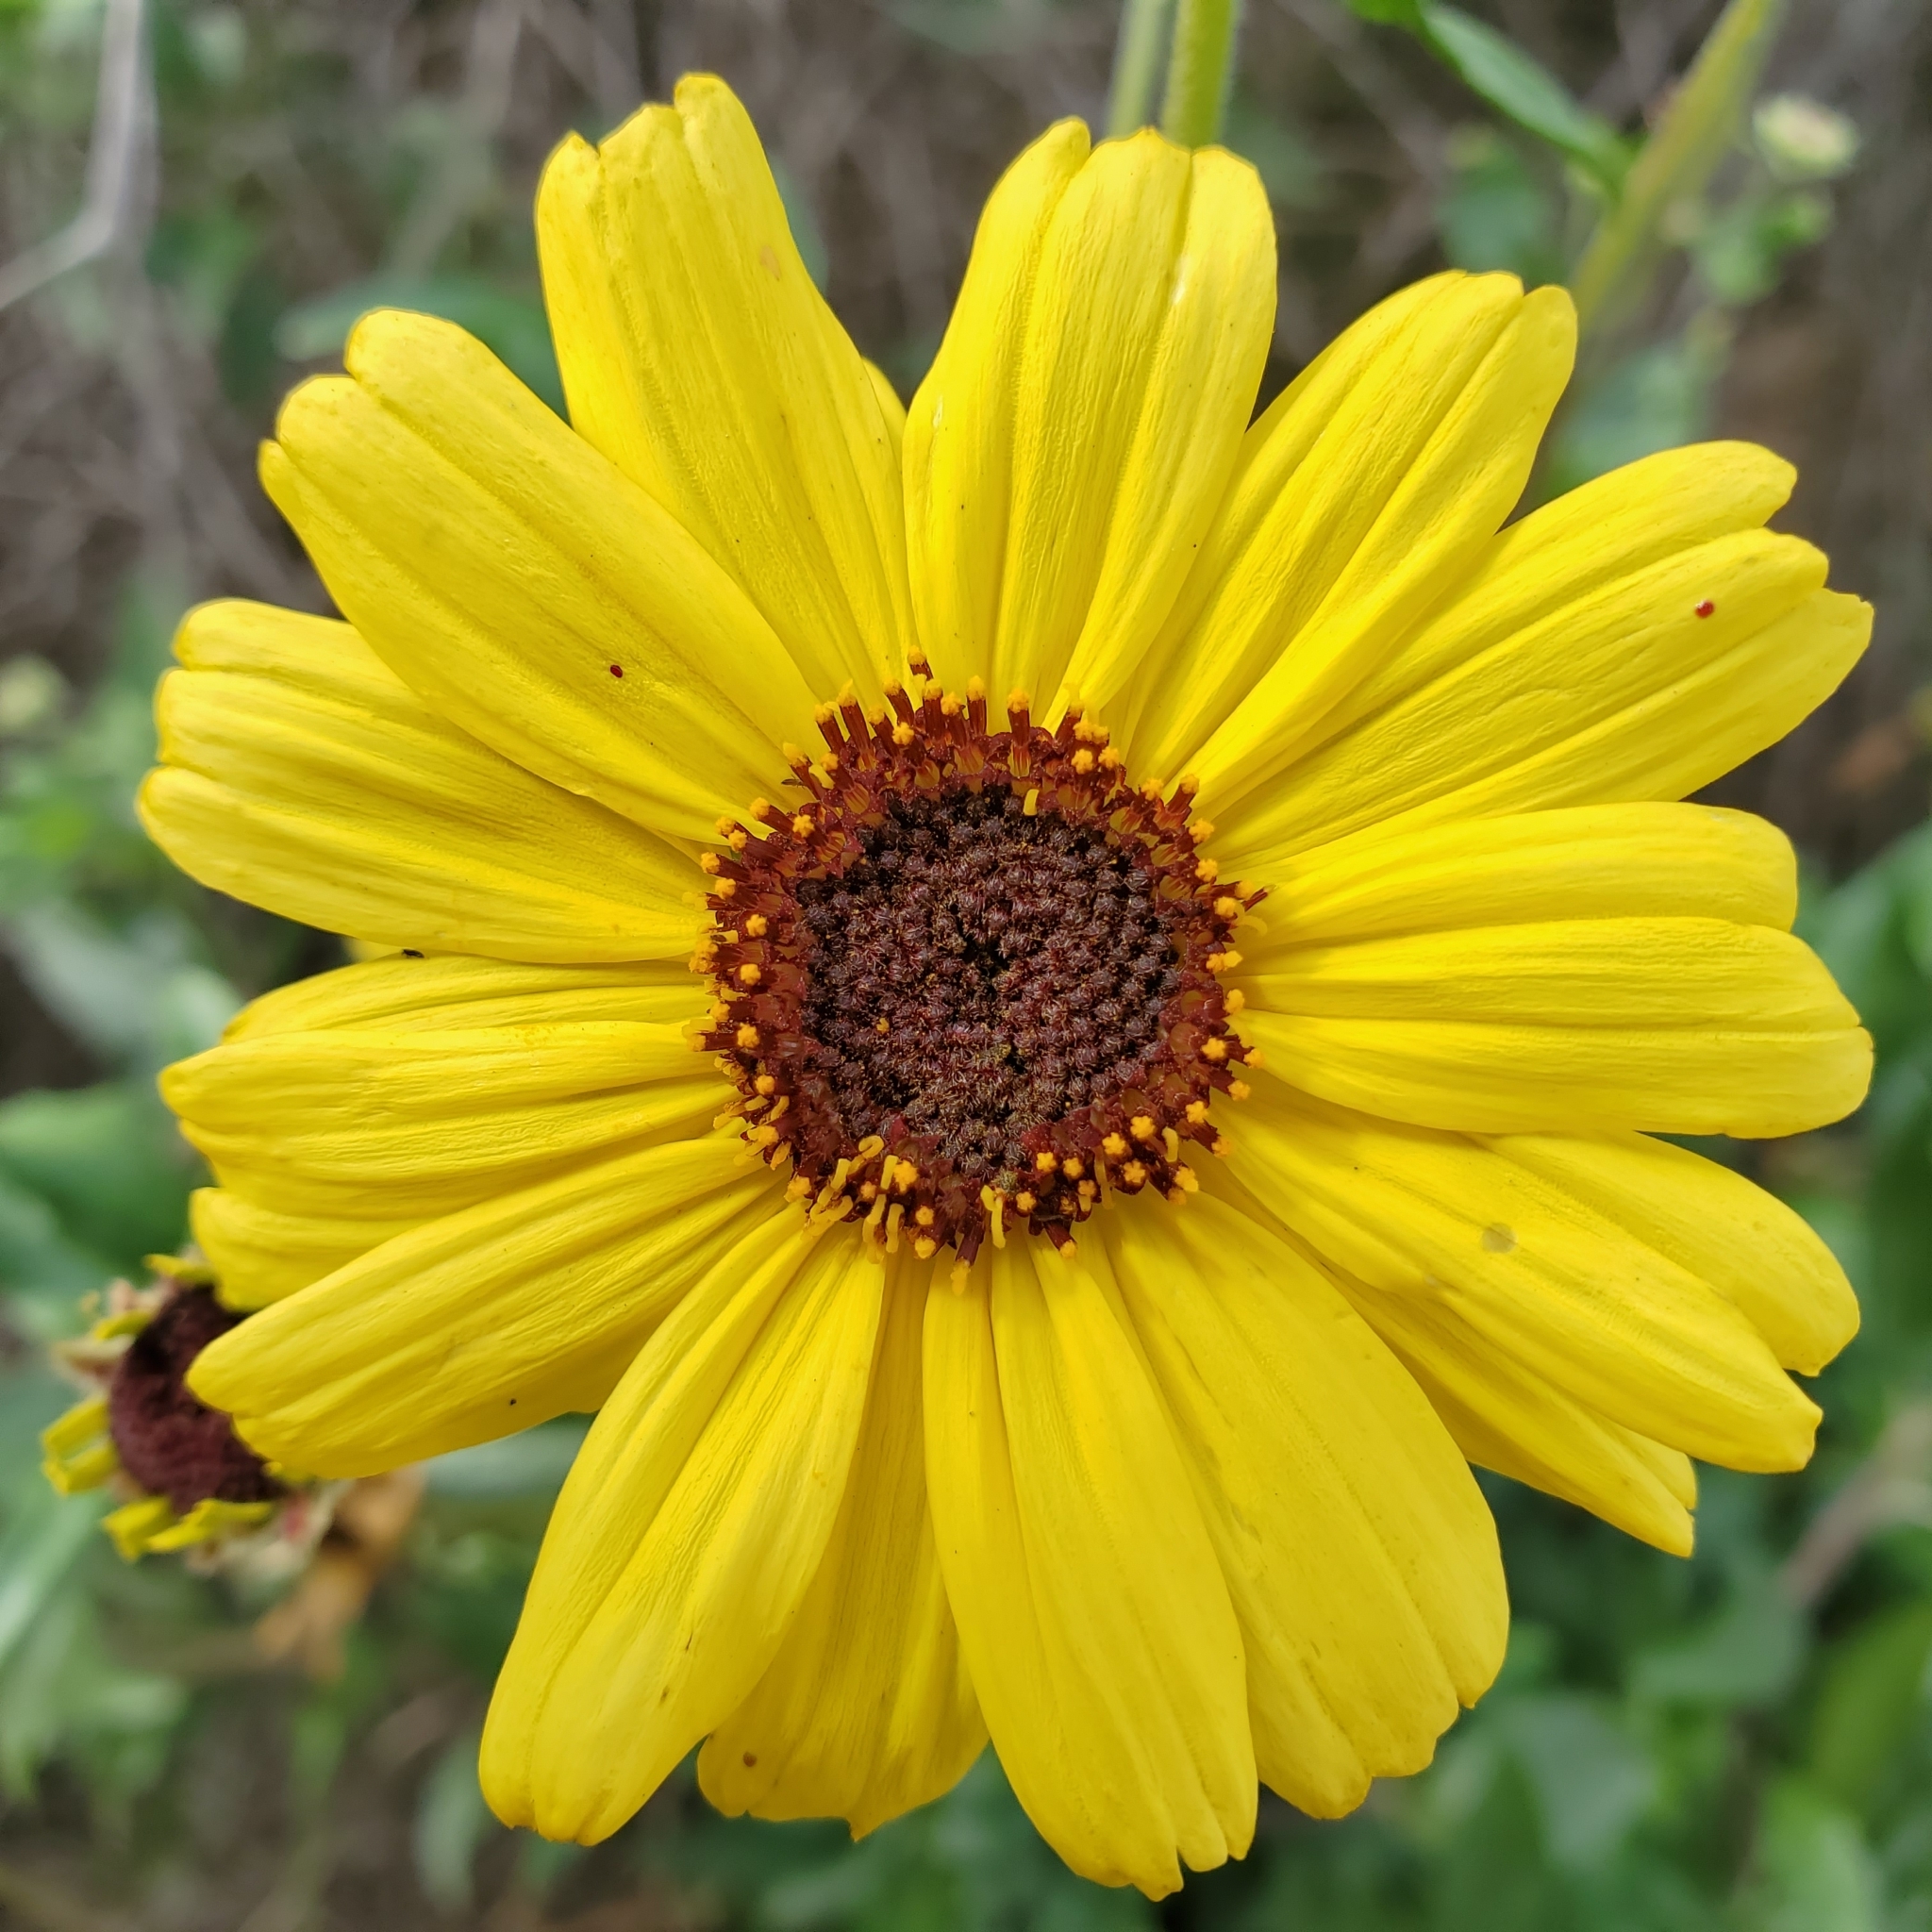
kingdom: Plantae
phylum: Tracheophyta
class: Magnoliopsida
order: Asterales
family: Asteraceae
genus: Encelia
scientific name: Encelia californica
